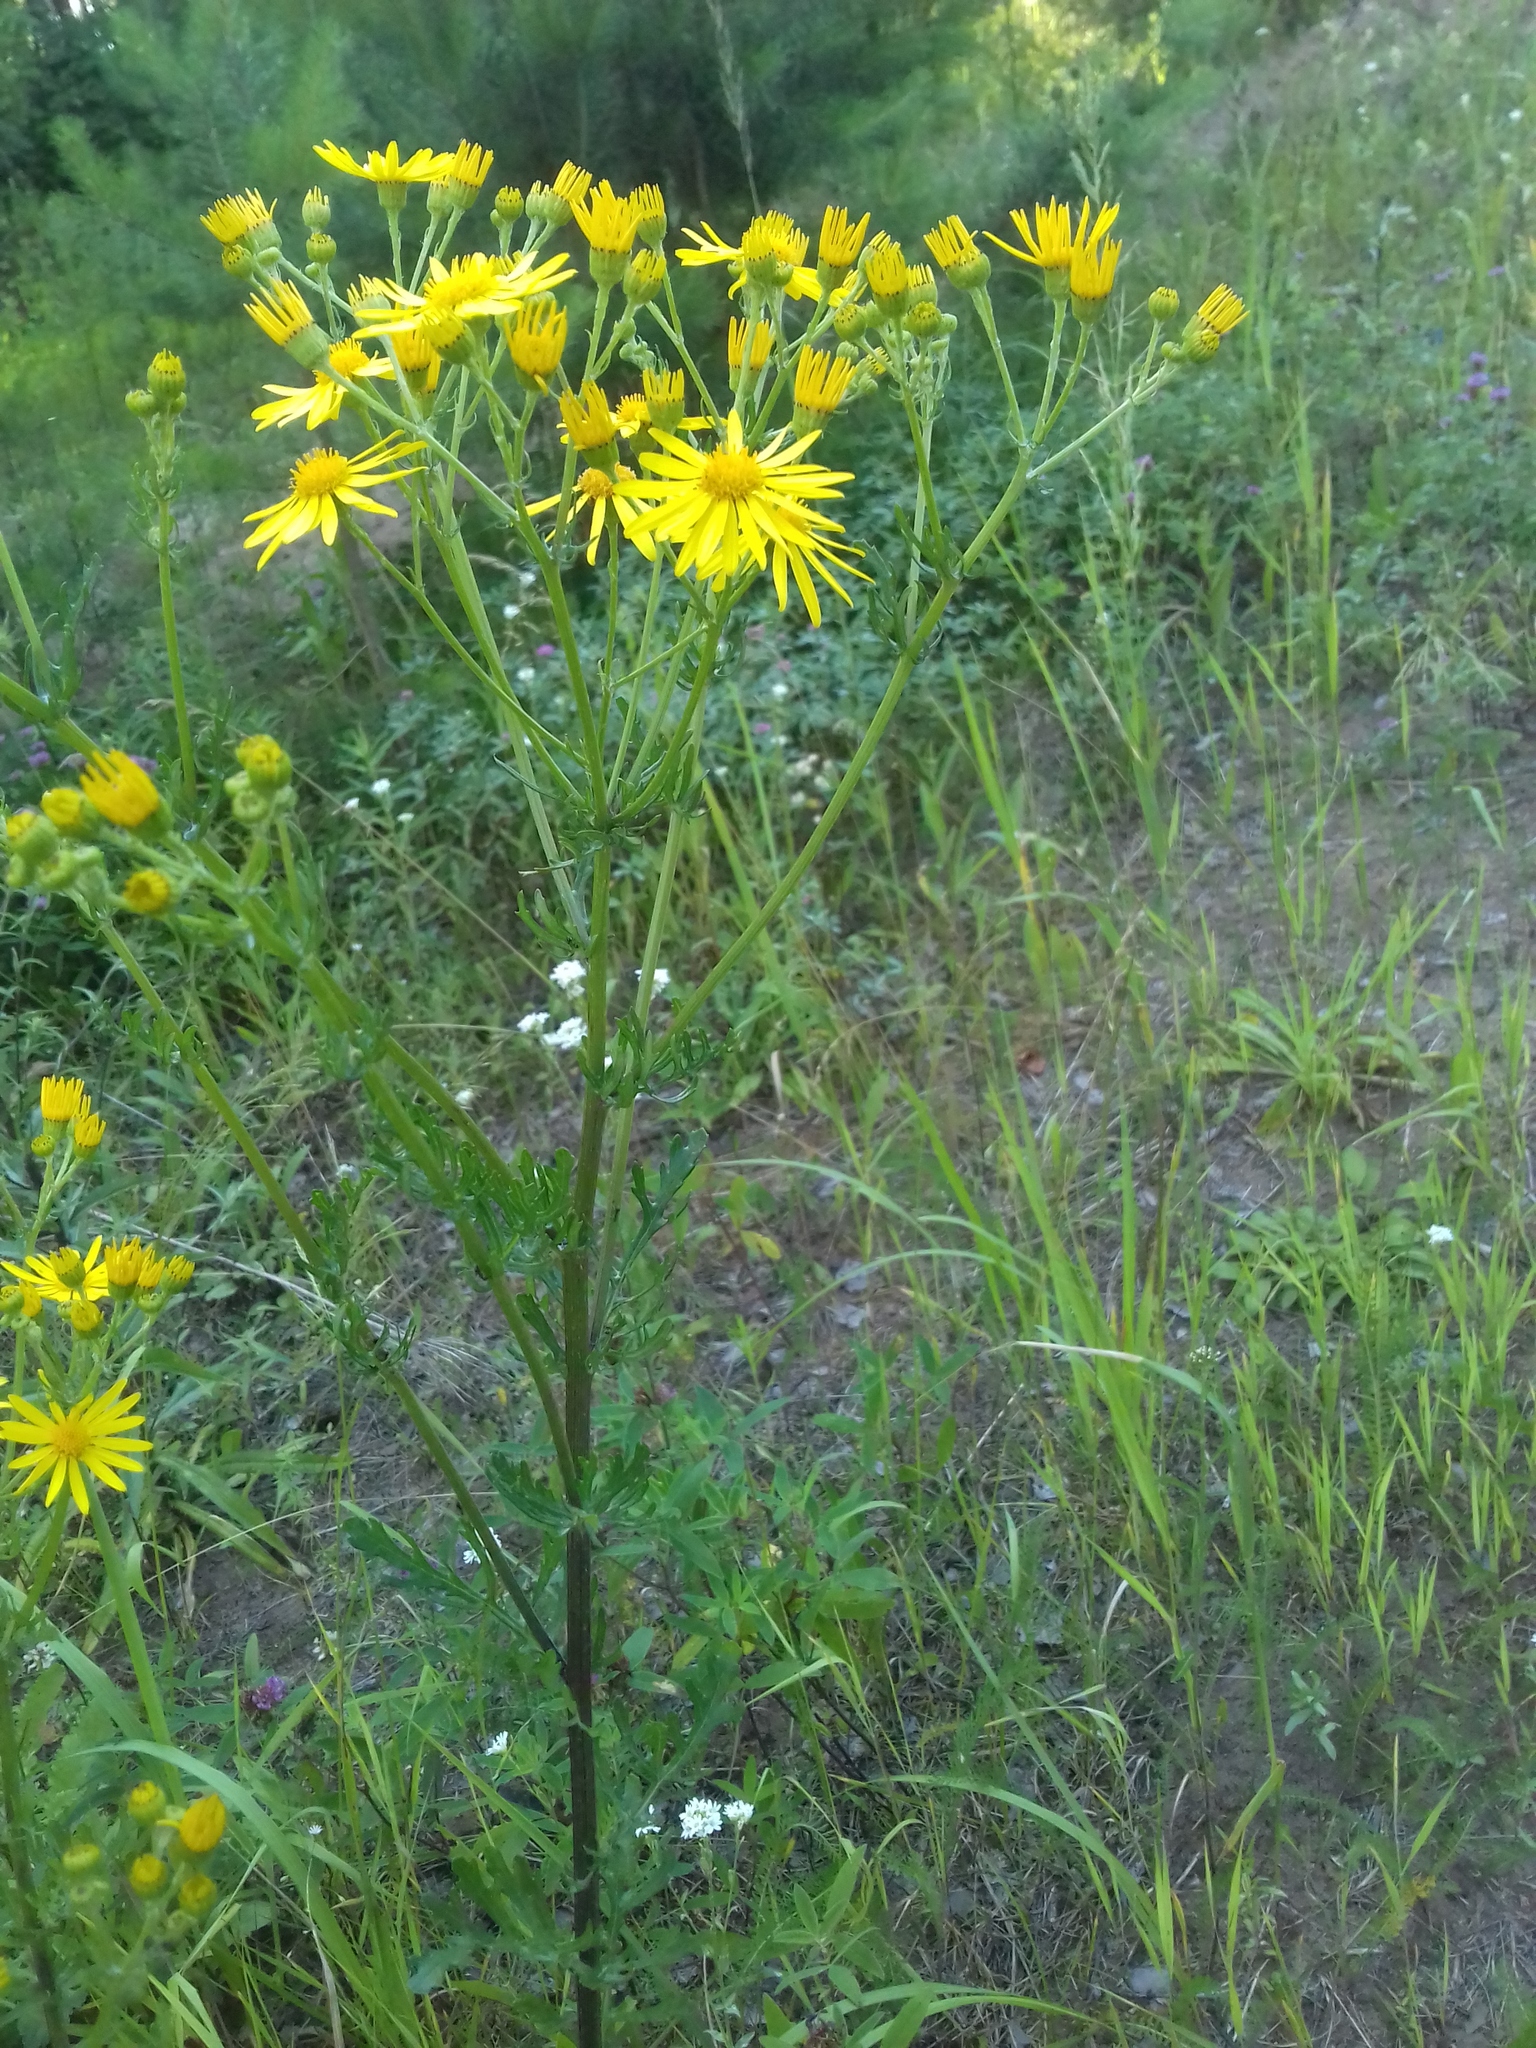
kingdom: Plantae
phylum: Tracheophyta
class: Magnoliopsida
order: Asterales
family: Asteraceae
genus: Jacobaea
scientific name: Jacobaea vulgaris
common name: Stinking willie
